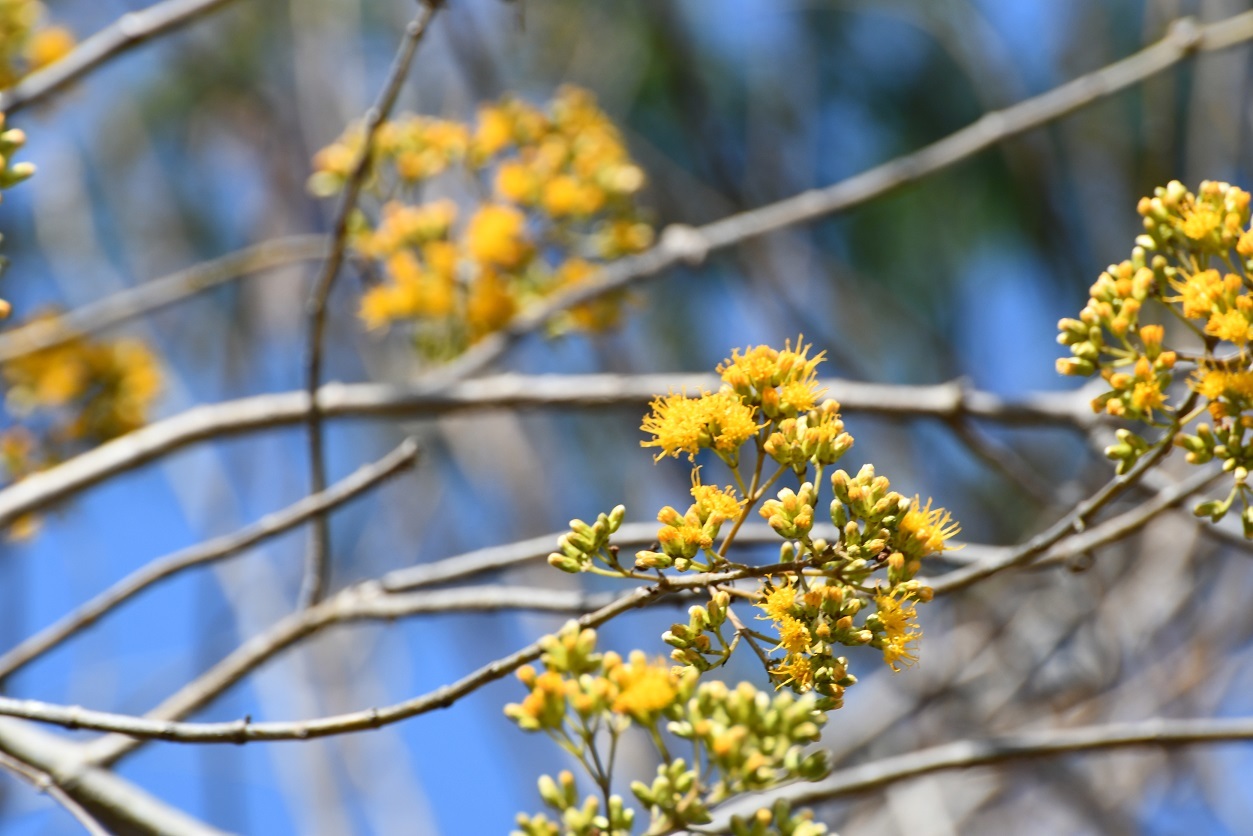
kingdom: Plantae
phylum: Tracheophyta
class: Magnoliopsida
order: Asterales
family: Asteraceae
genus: Sinclairia
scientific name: Sinclairia vagans
